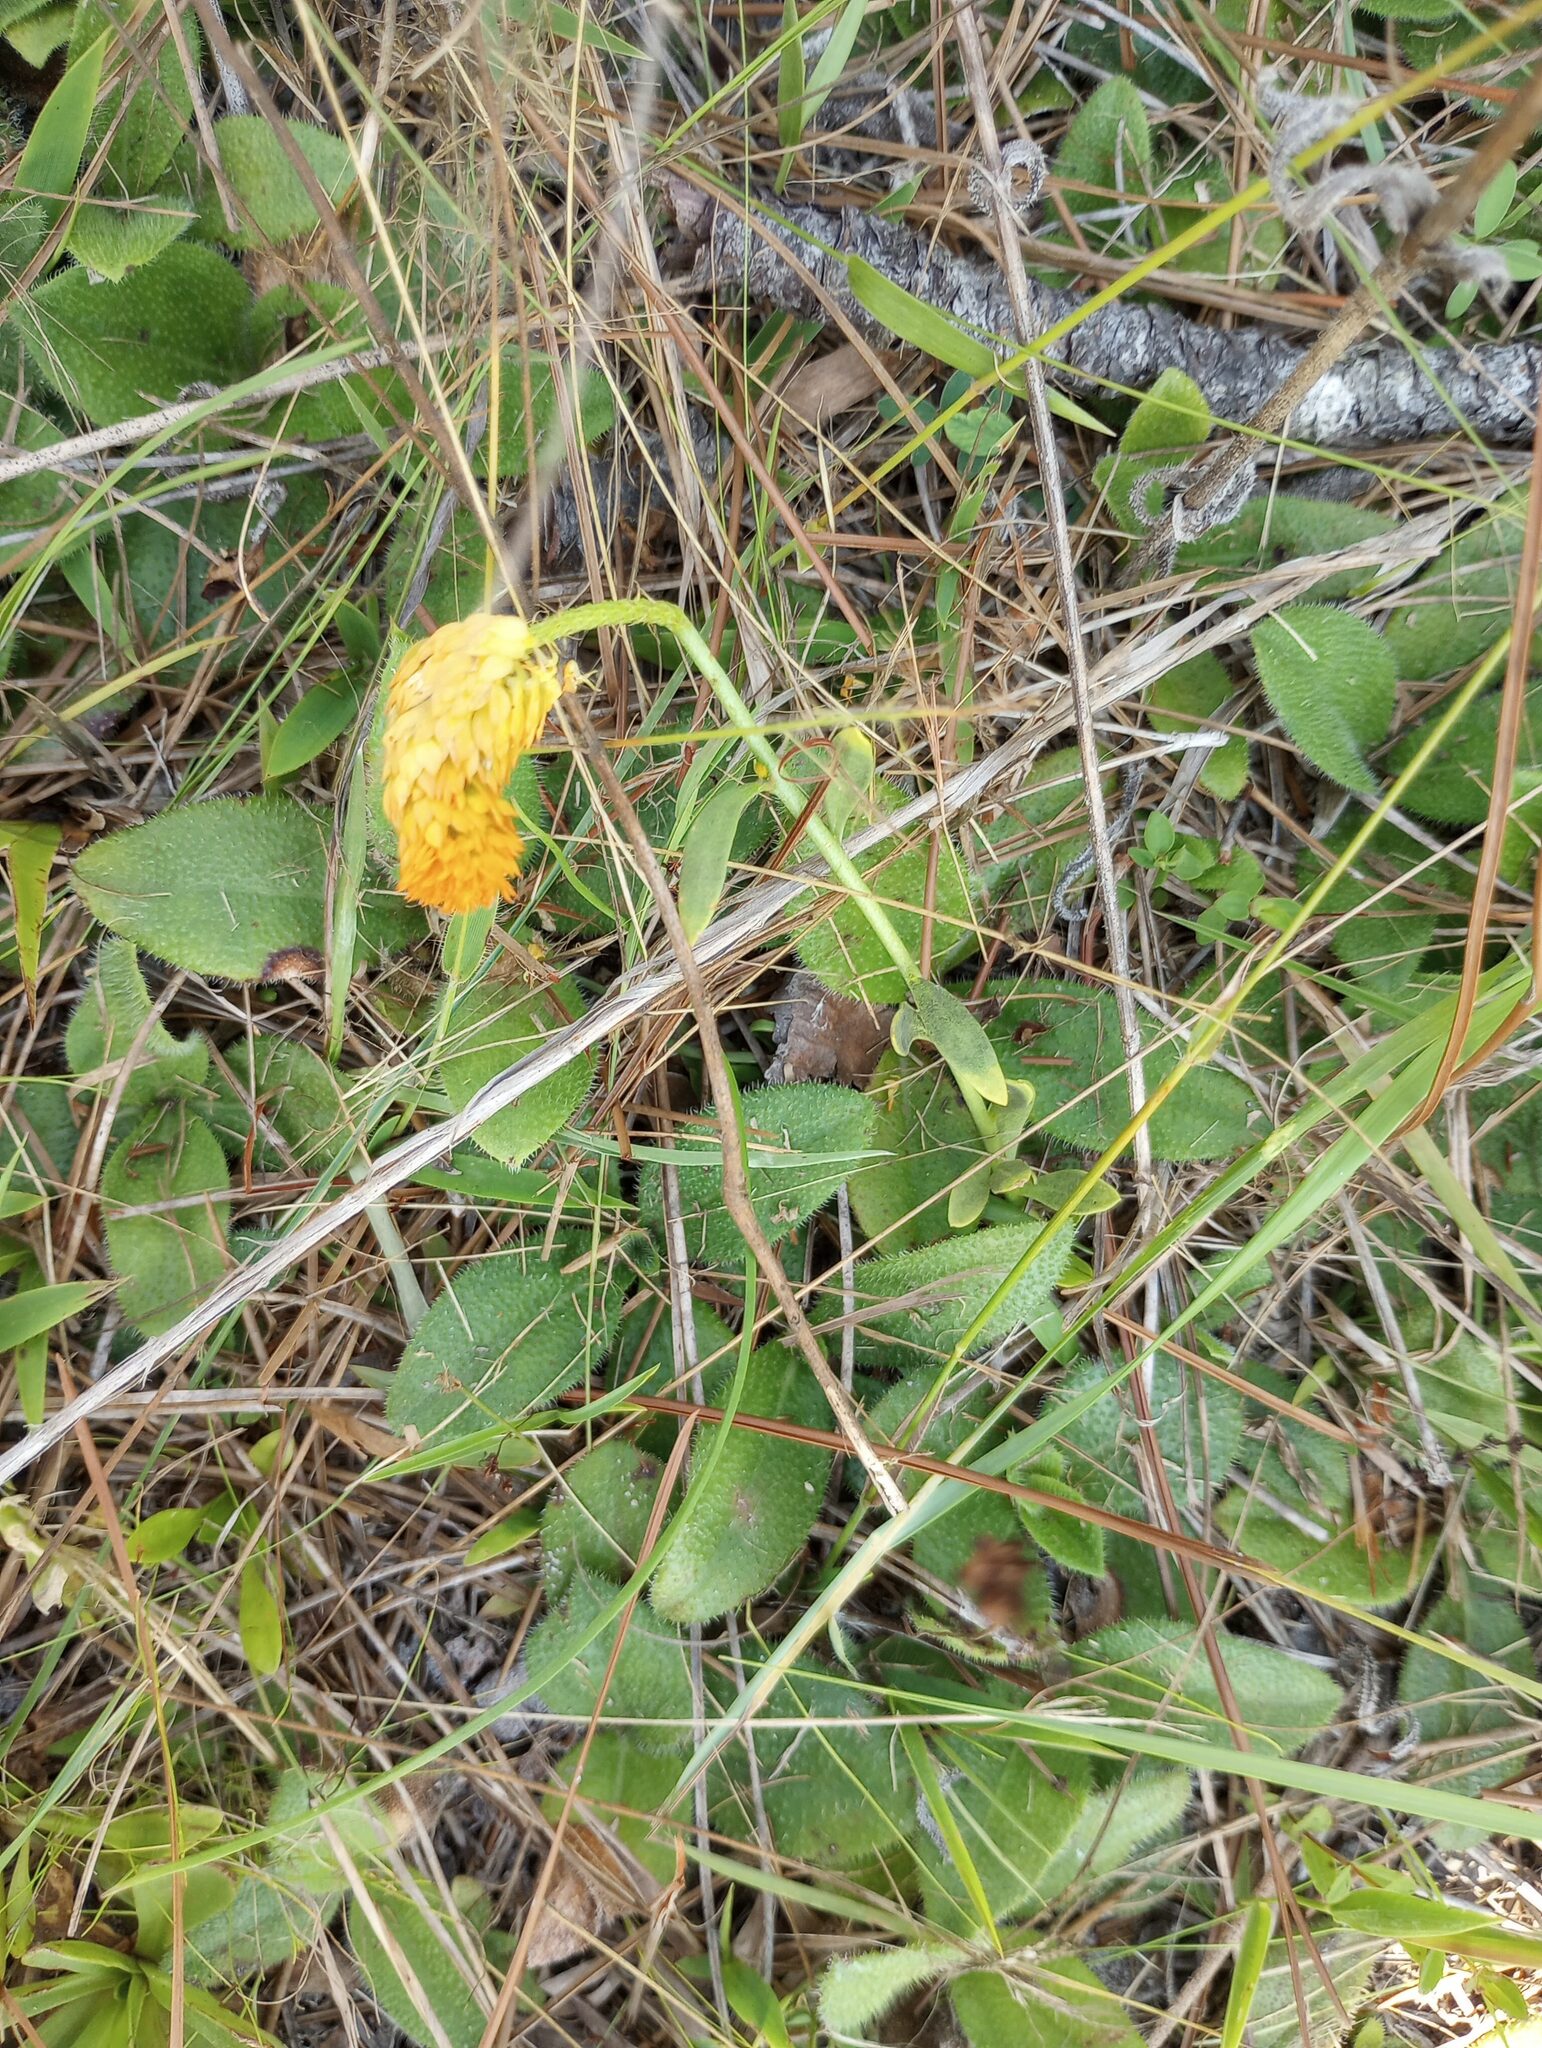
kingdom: Plantae
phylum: Tracheophyta
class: Magnoliopsida
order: Fabales
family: Polygalaceae
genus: Polygala
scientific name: Polygala lutea
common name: Orange milkwort
